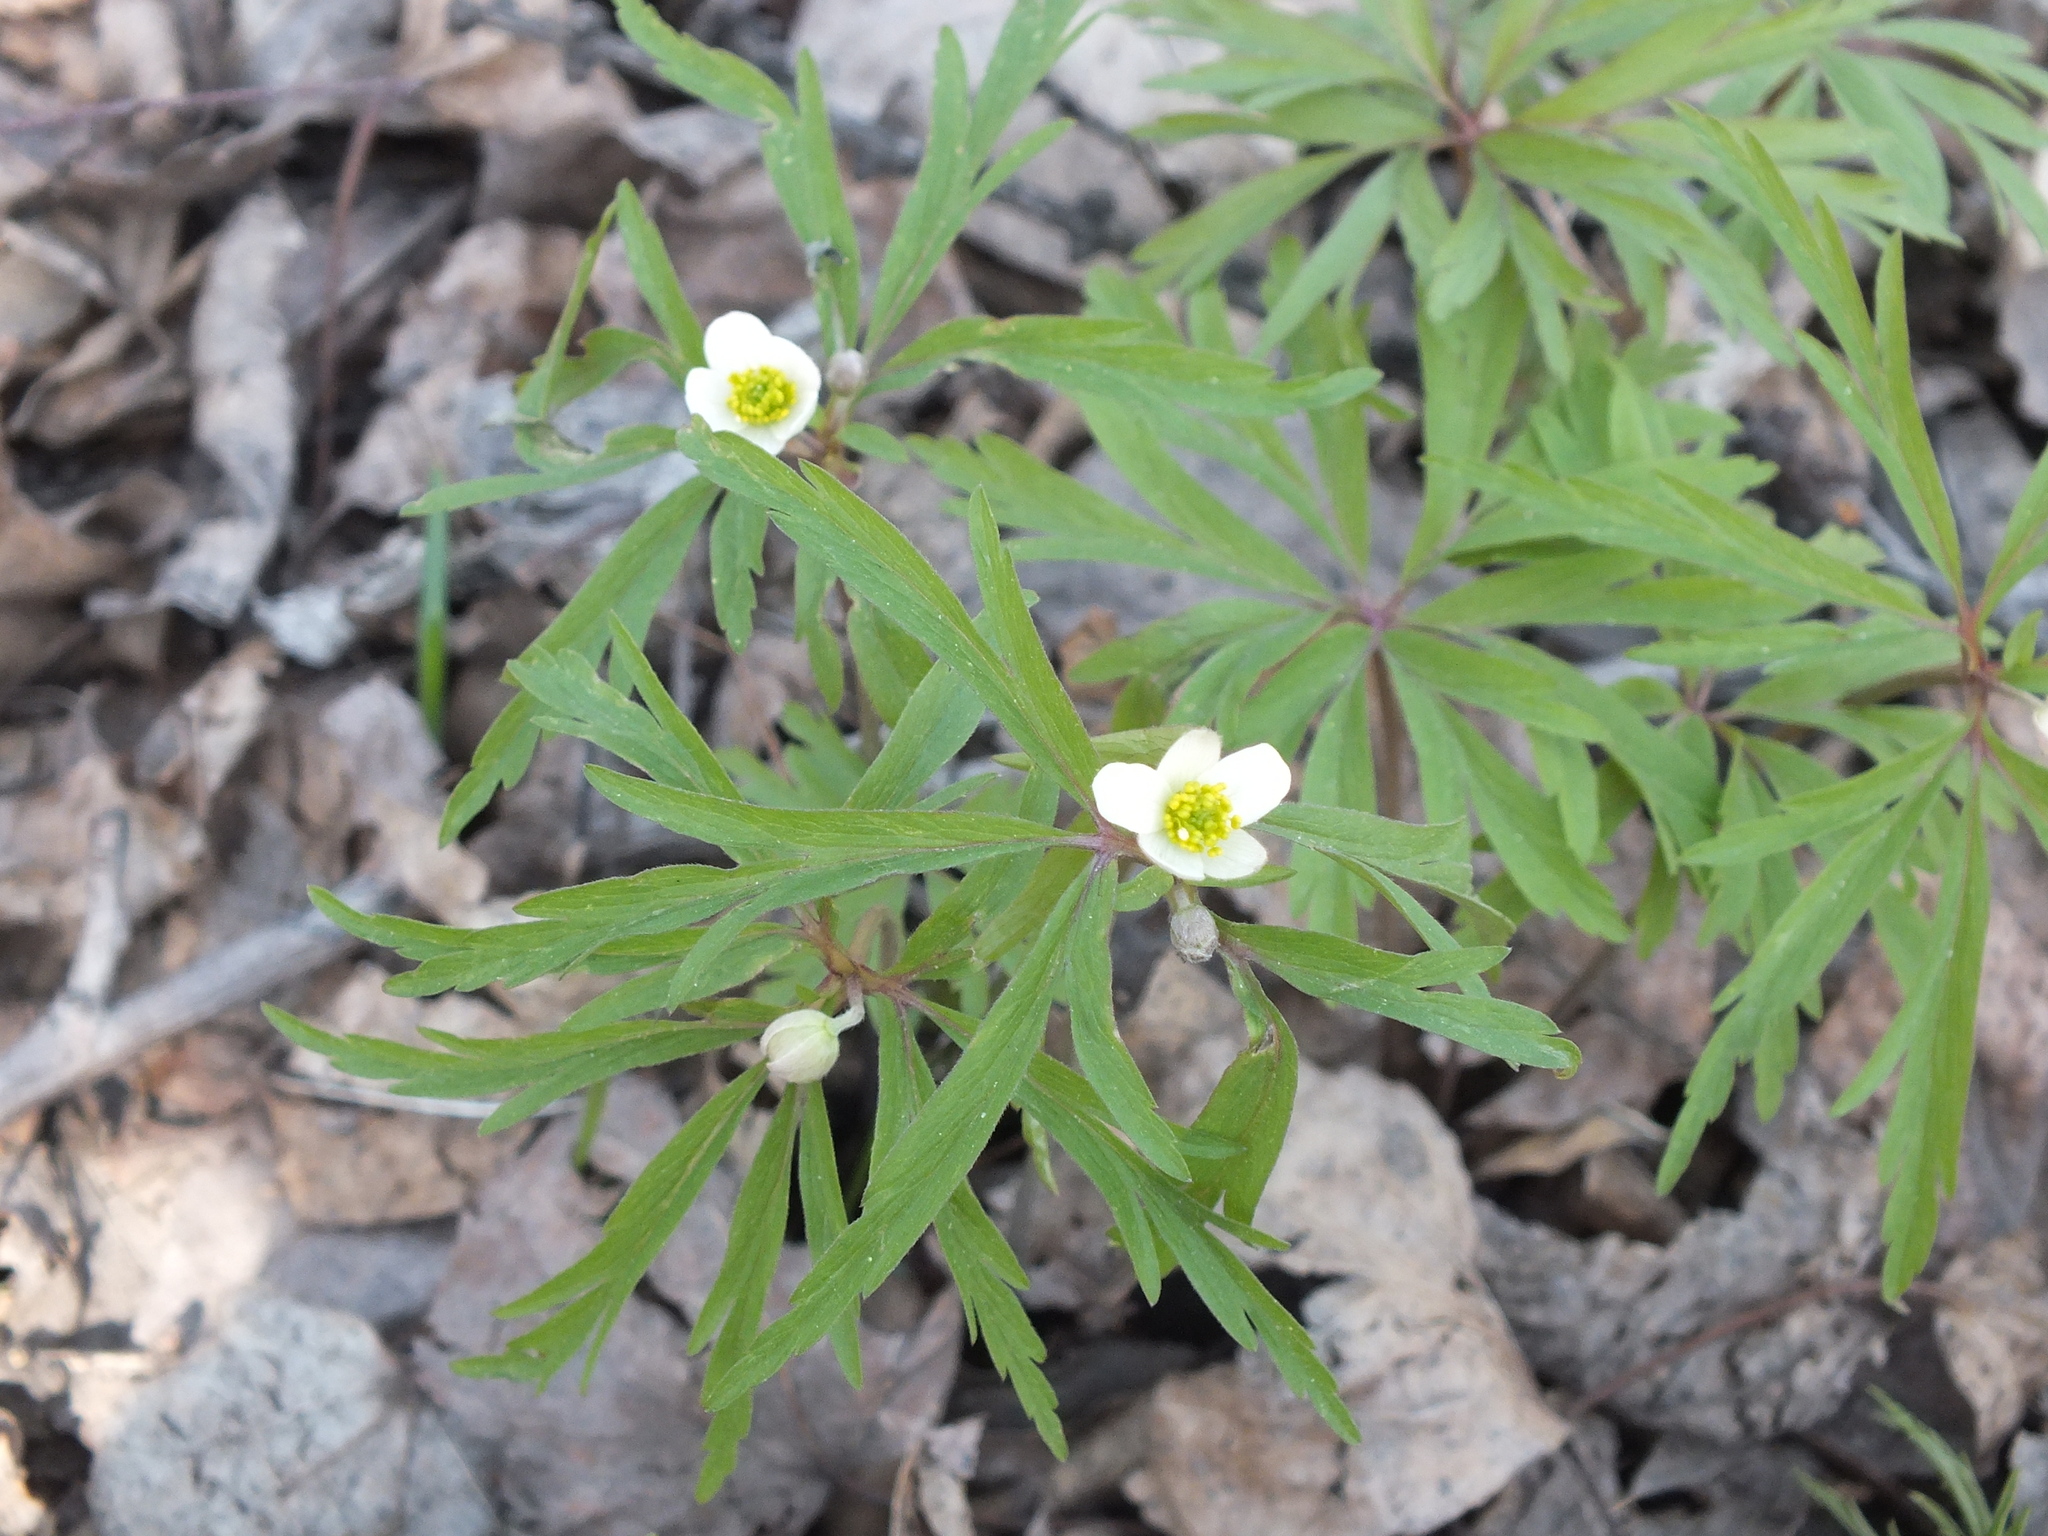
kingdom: Plantae
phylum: Tracheophyta
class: Magnoliopsida
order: Ranunculales
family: Ranunculaceae
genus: Anemone
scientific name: Anemone caerulea
